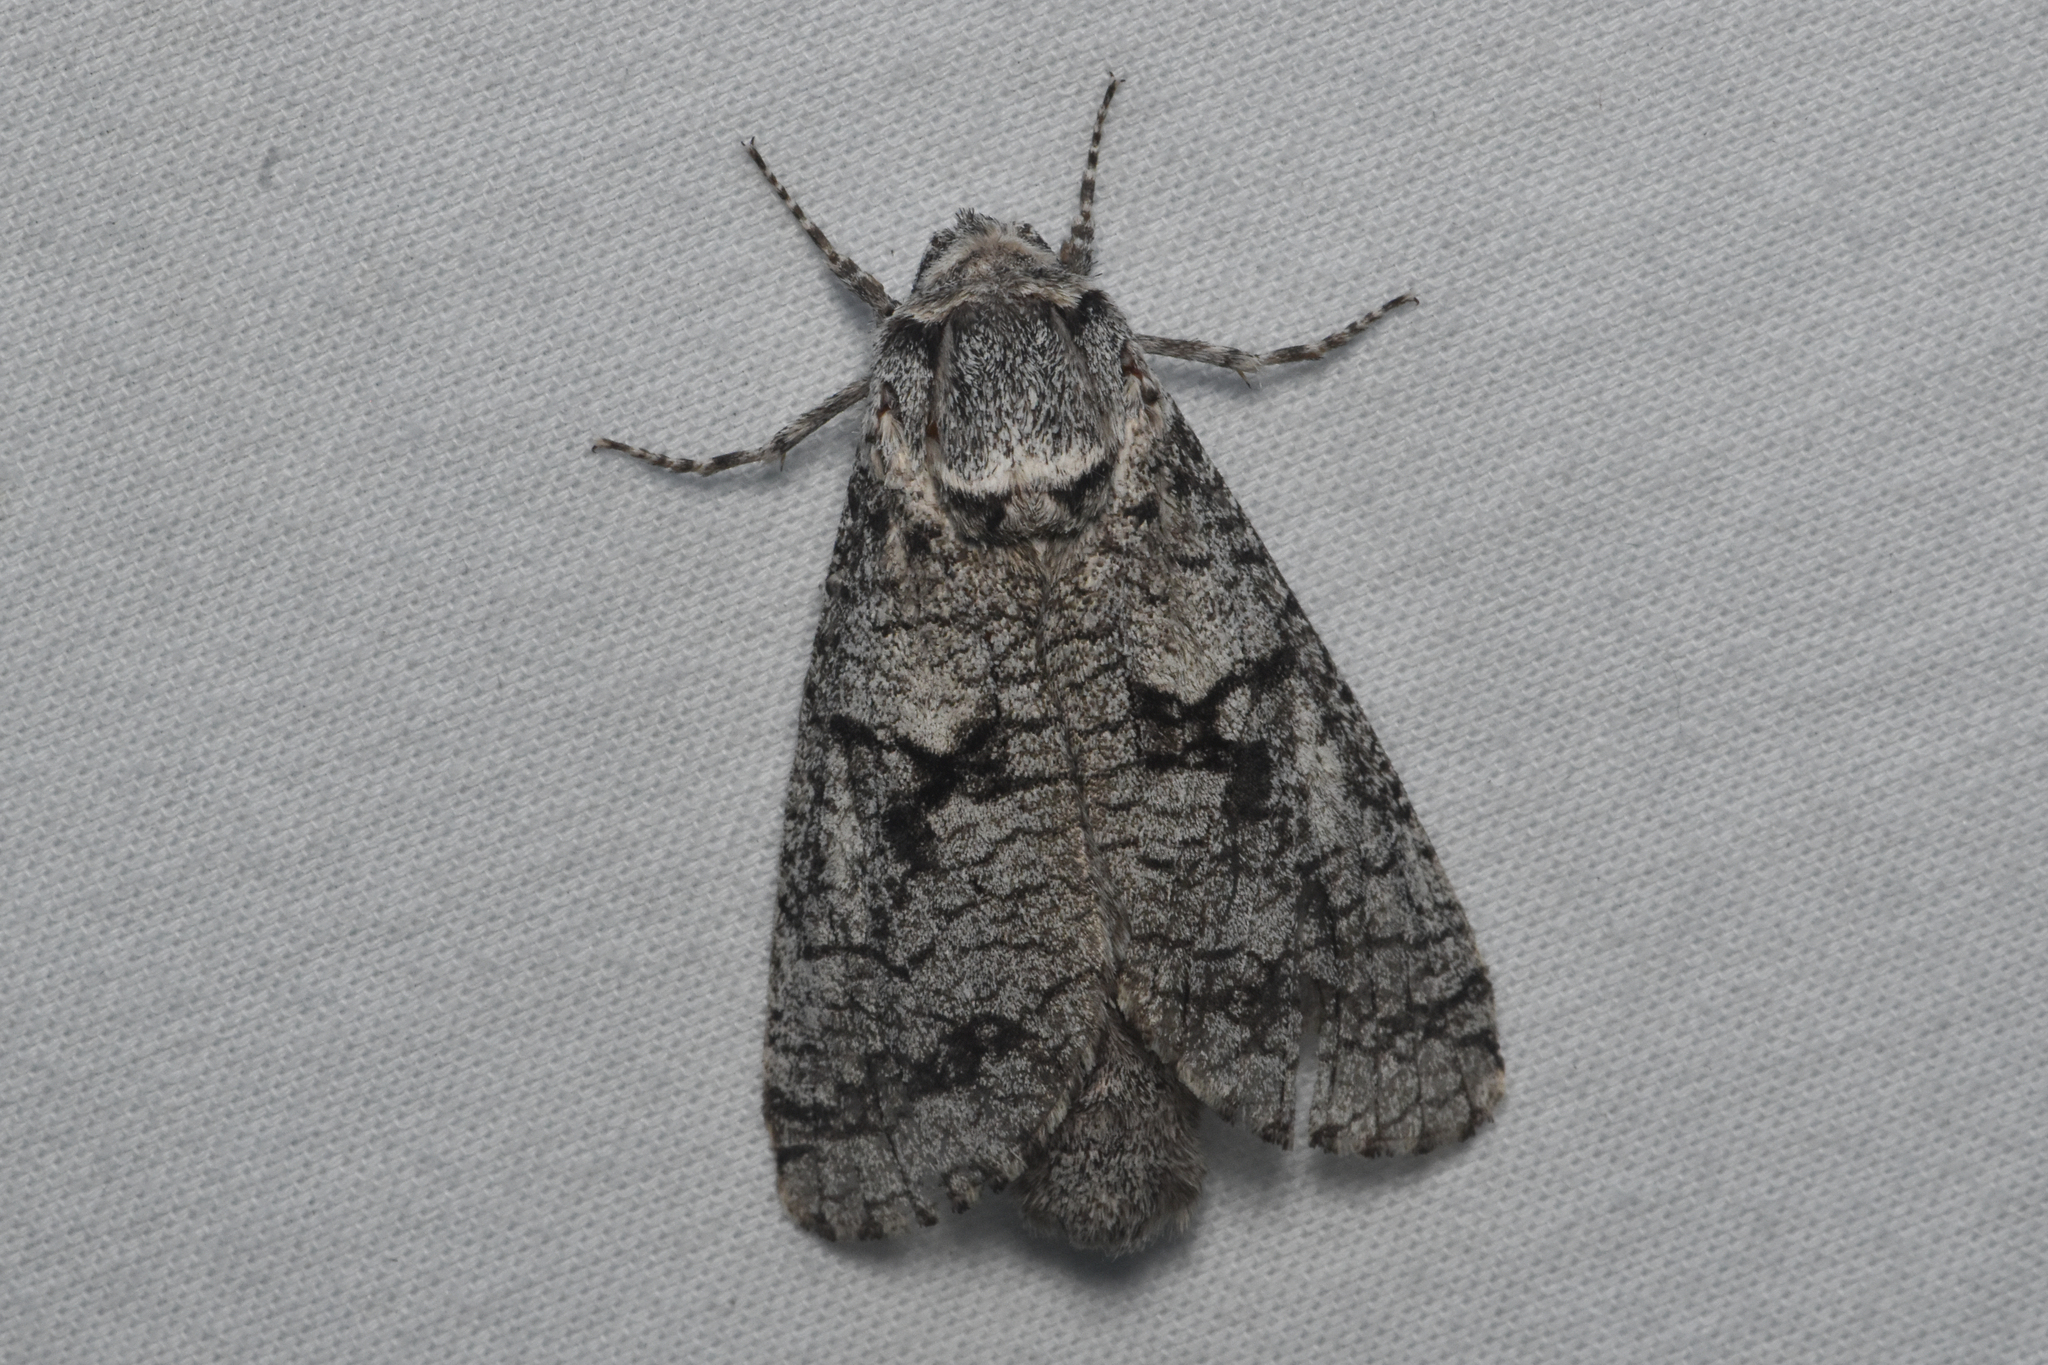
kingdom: Animalia
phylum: Arthropoda
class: Insecta
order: Lepidoptera
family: Cossidae
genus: Acossus
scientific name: Acossus populi
